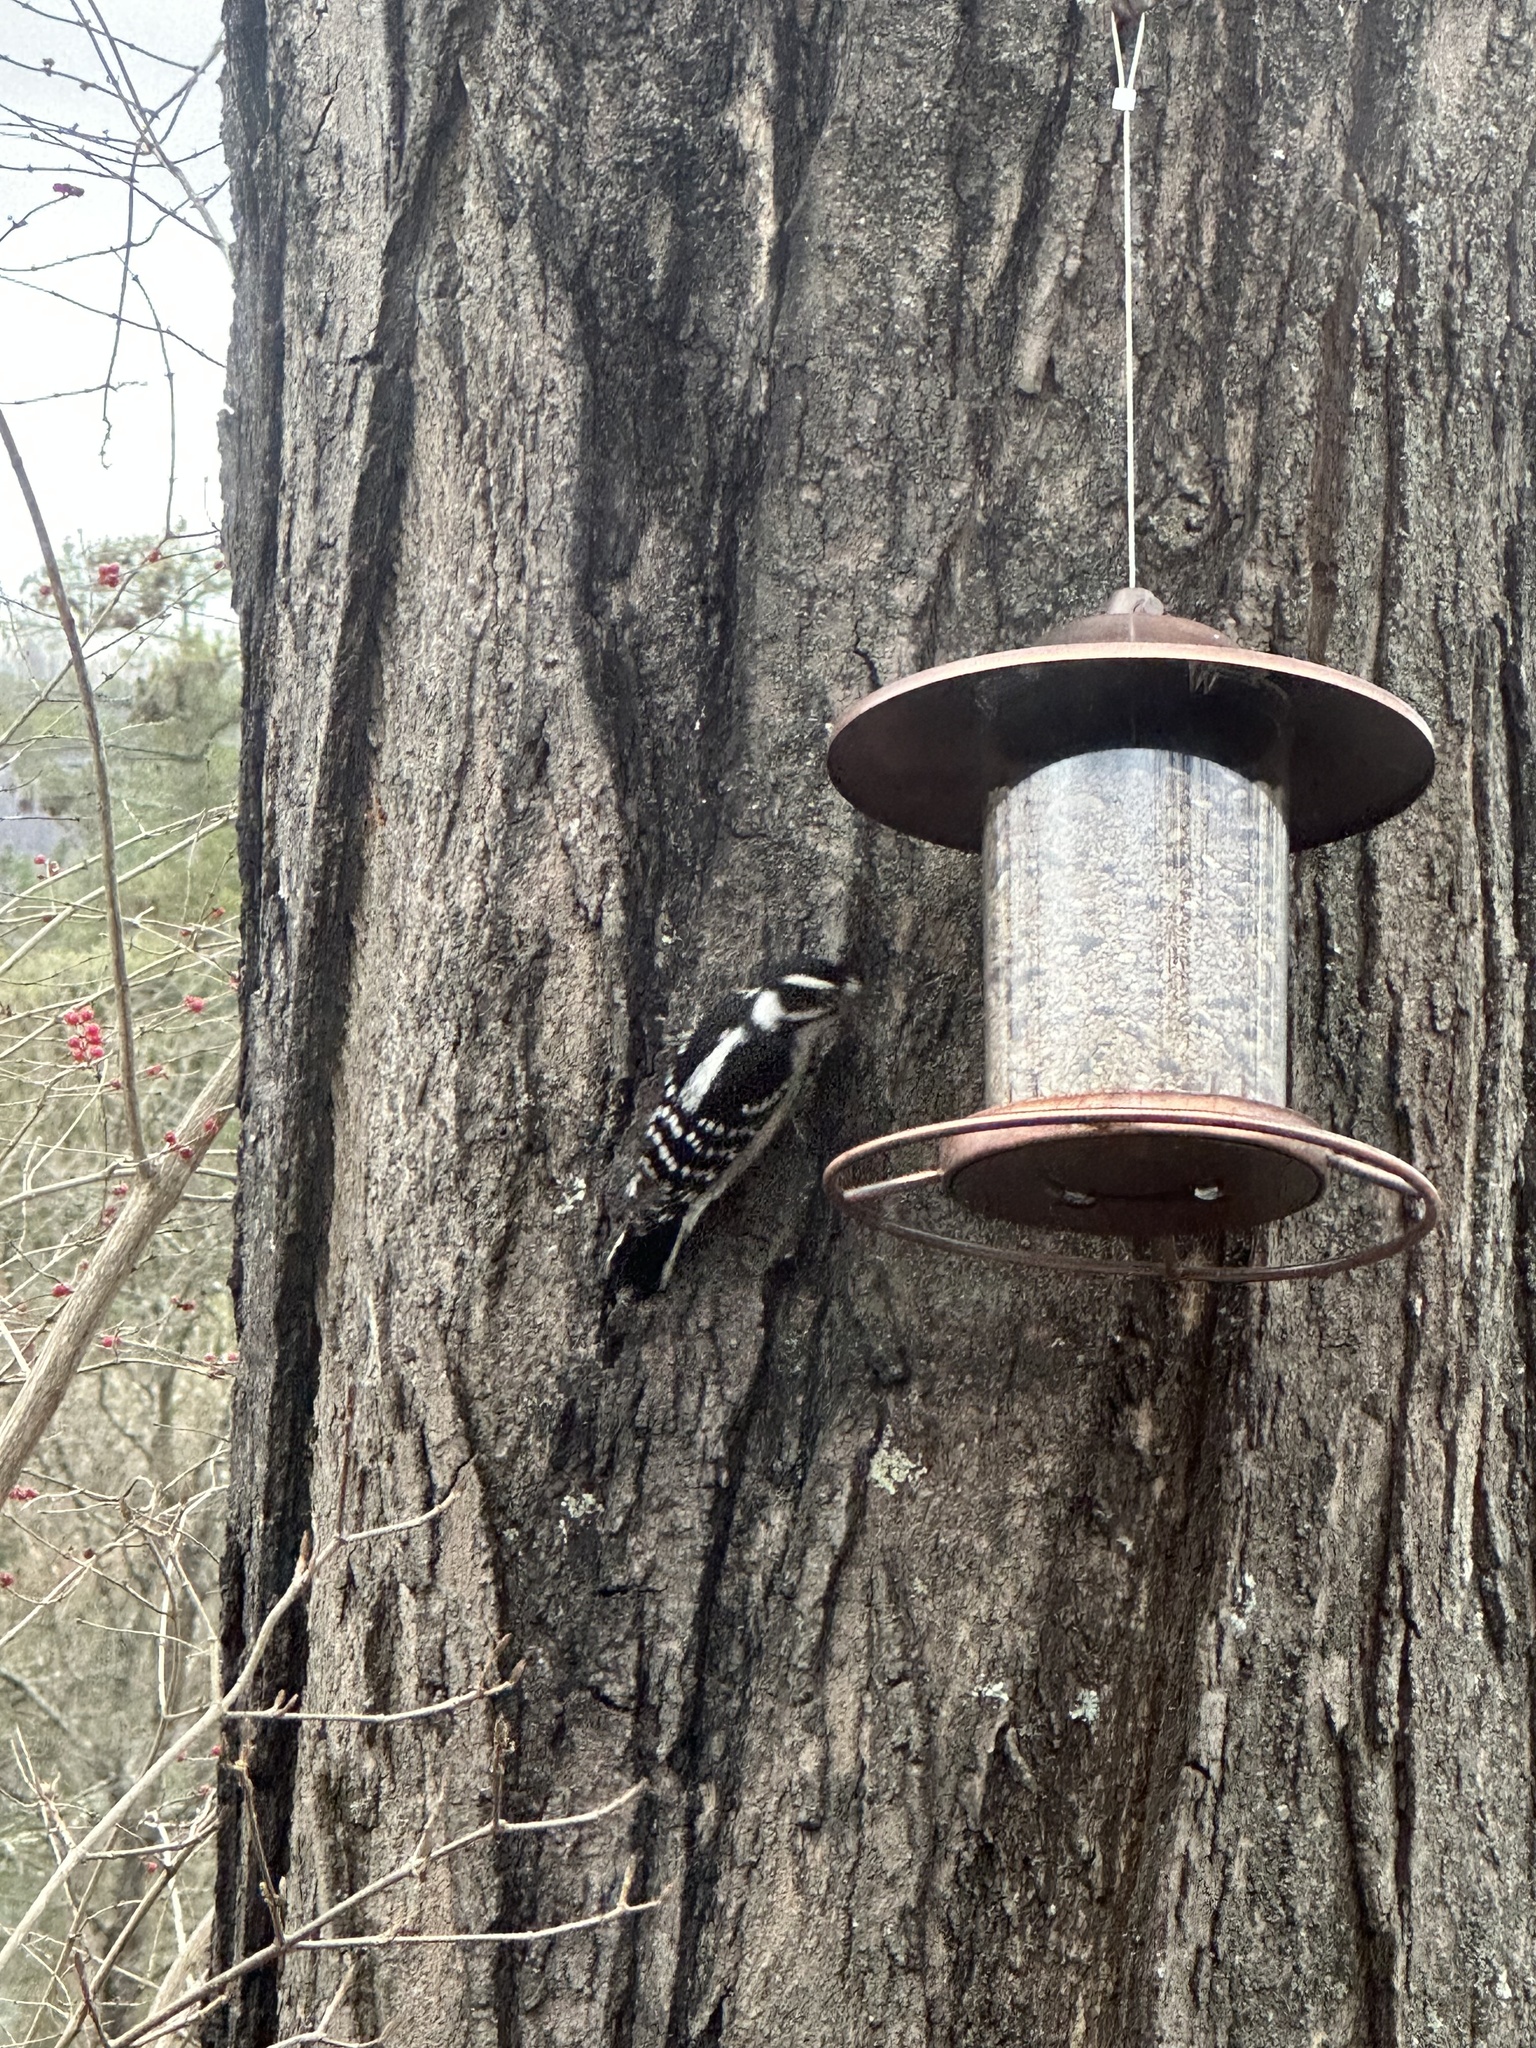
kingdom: Animalia
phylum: Chordata
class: Aves
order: Piciformes
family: Picidae
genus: Dryobates
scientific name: Dryobates pubescens
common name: Downy woodpecker
